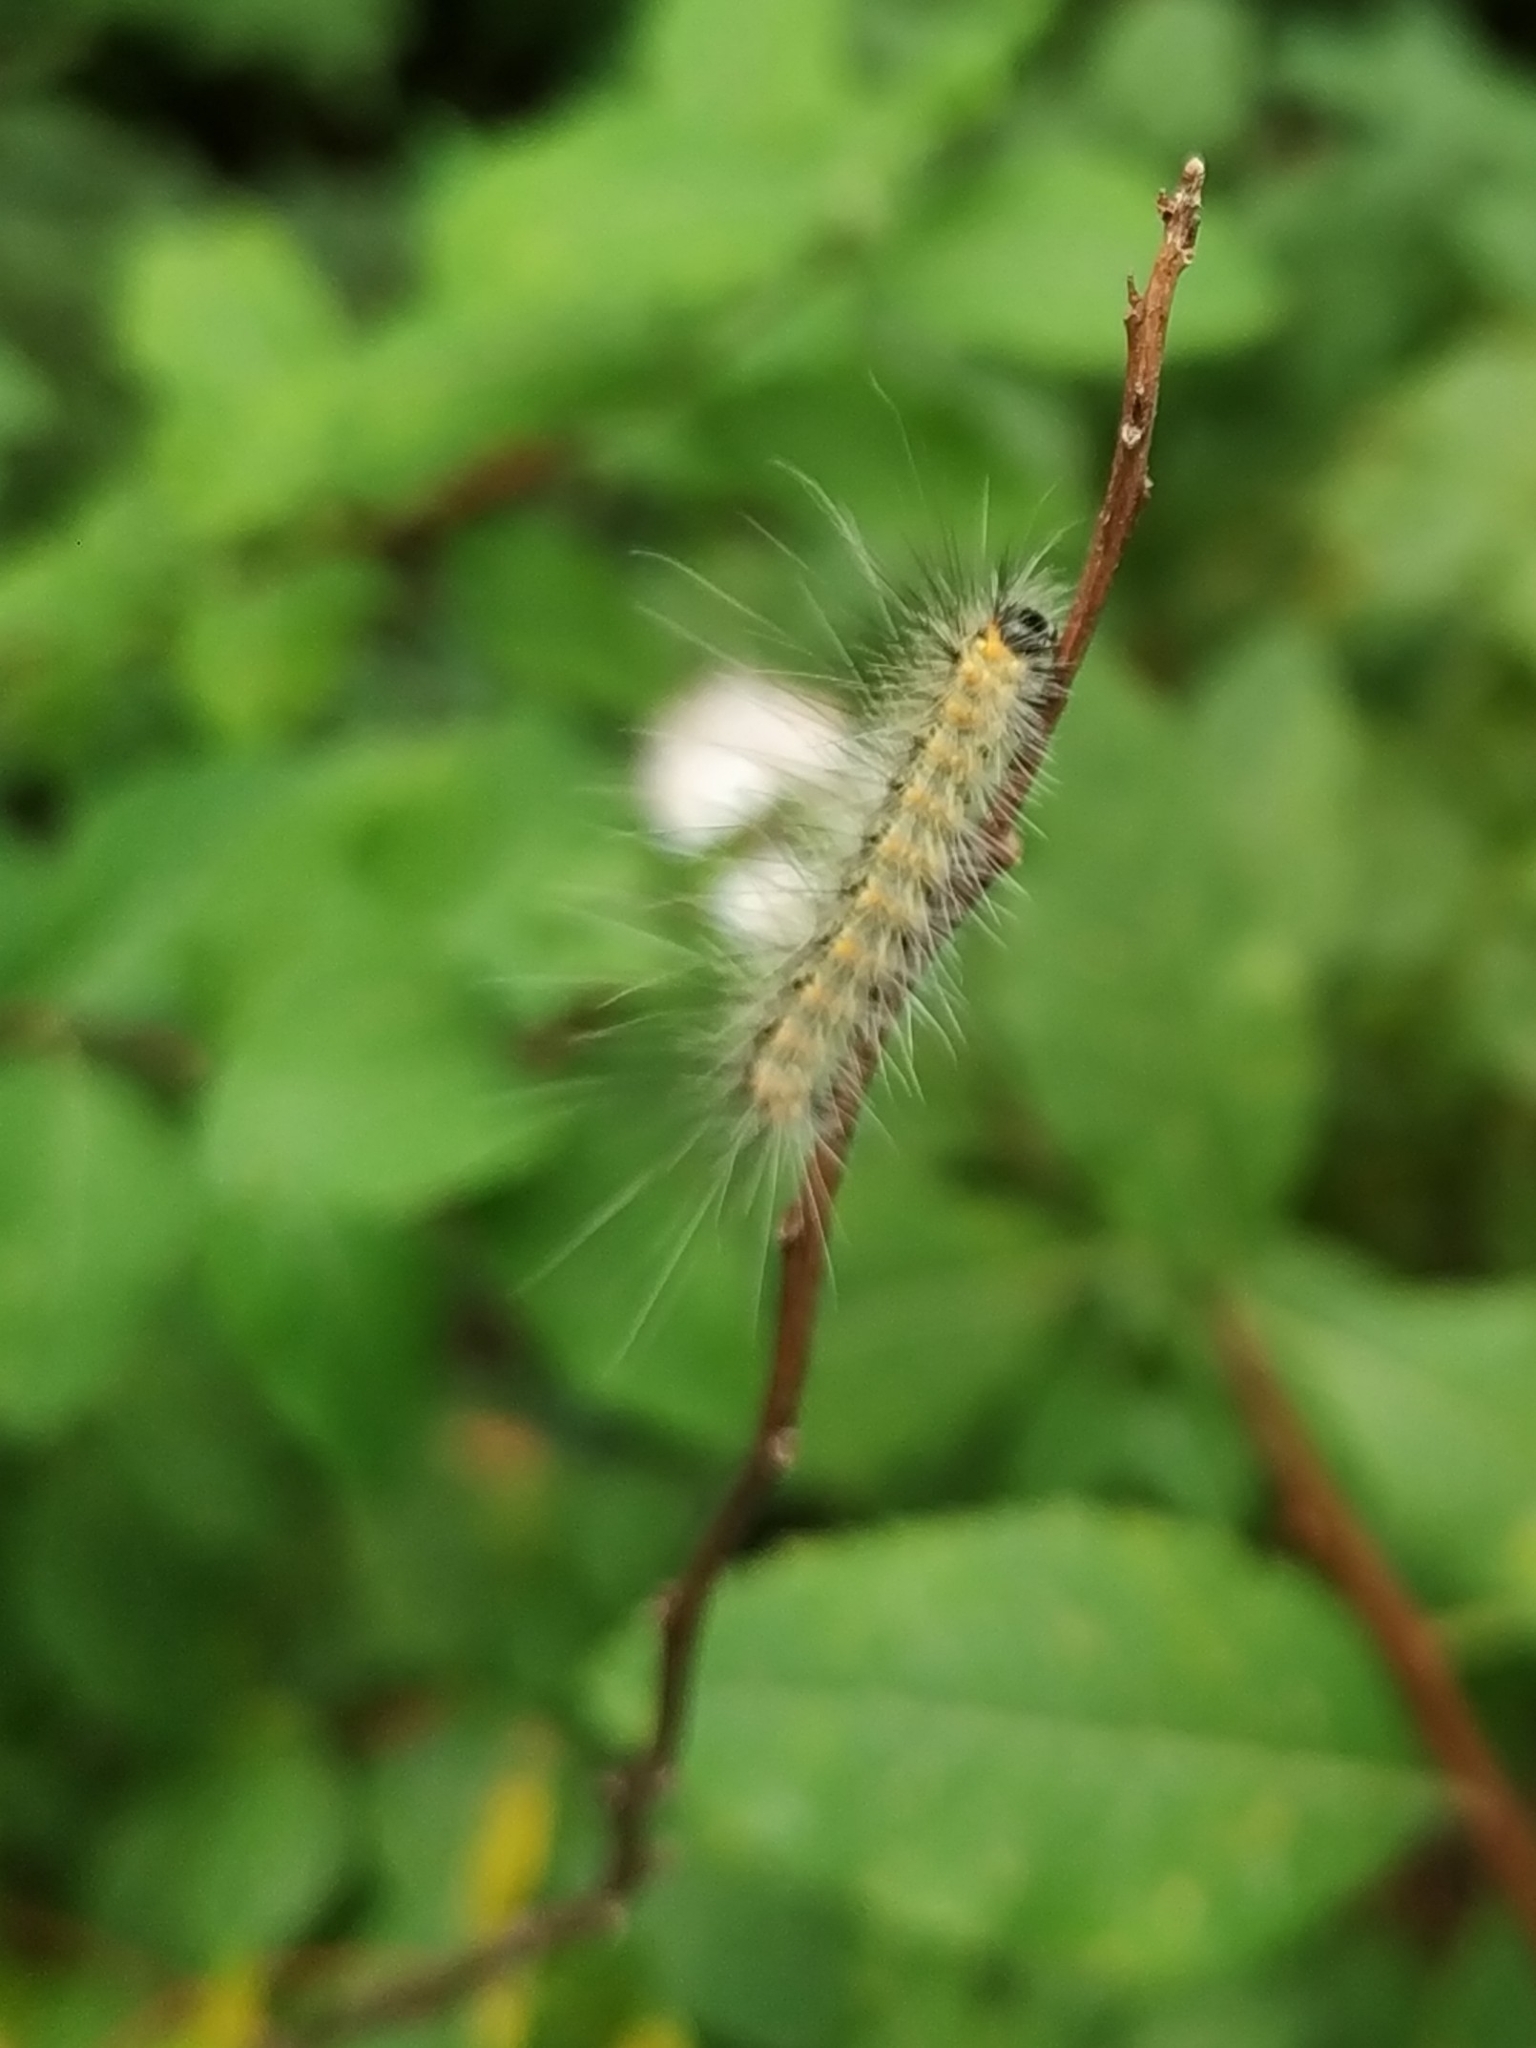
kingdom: Animalia
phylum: Arthropoda
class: Insecta
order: Lepidoptera
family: Erebidae
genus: Hyphantria
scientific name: Hyphantria cunea
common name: American white moth
